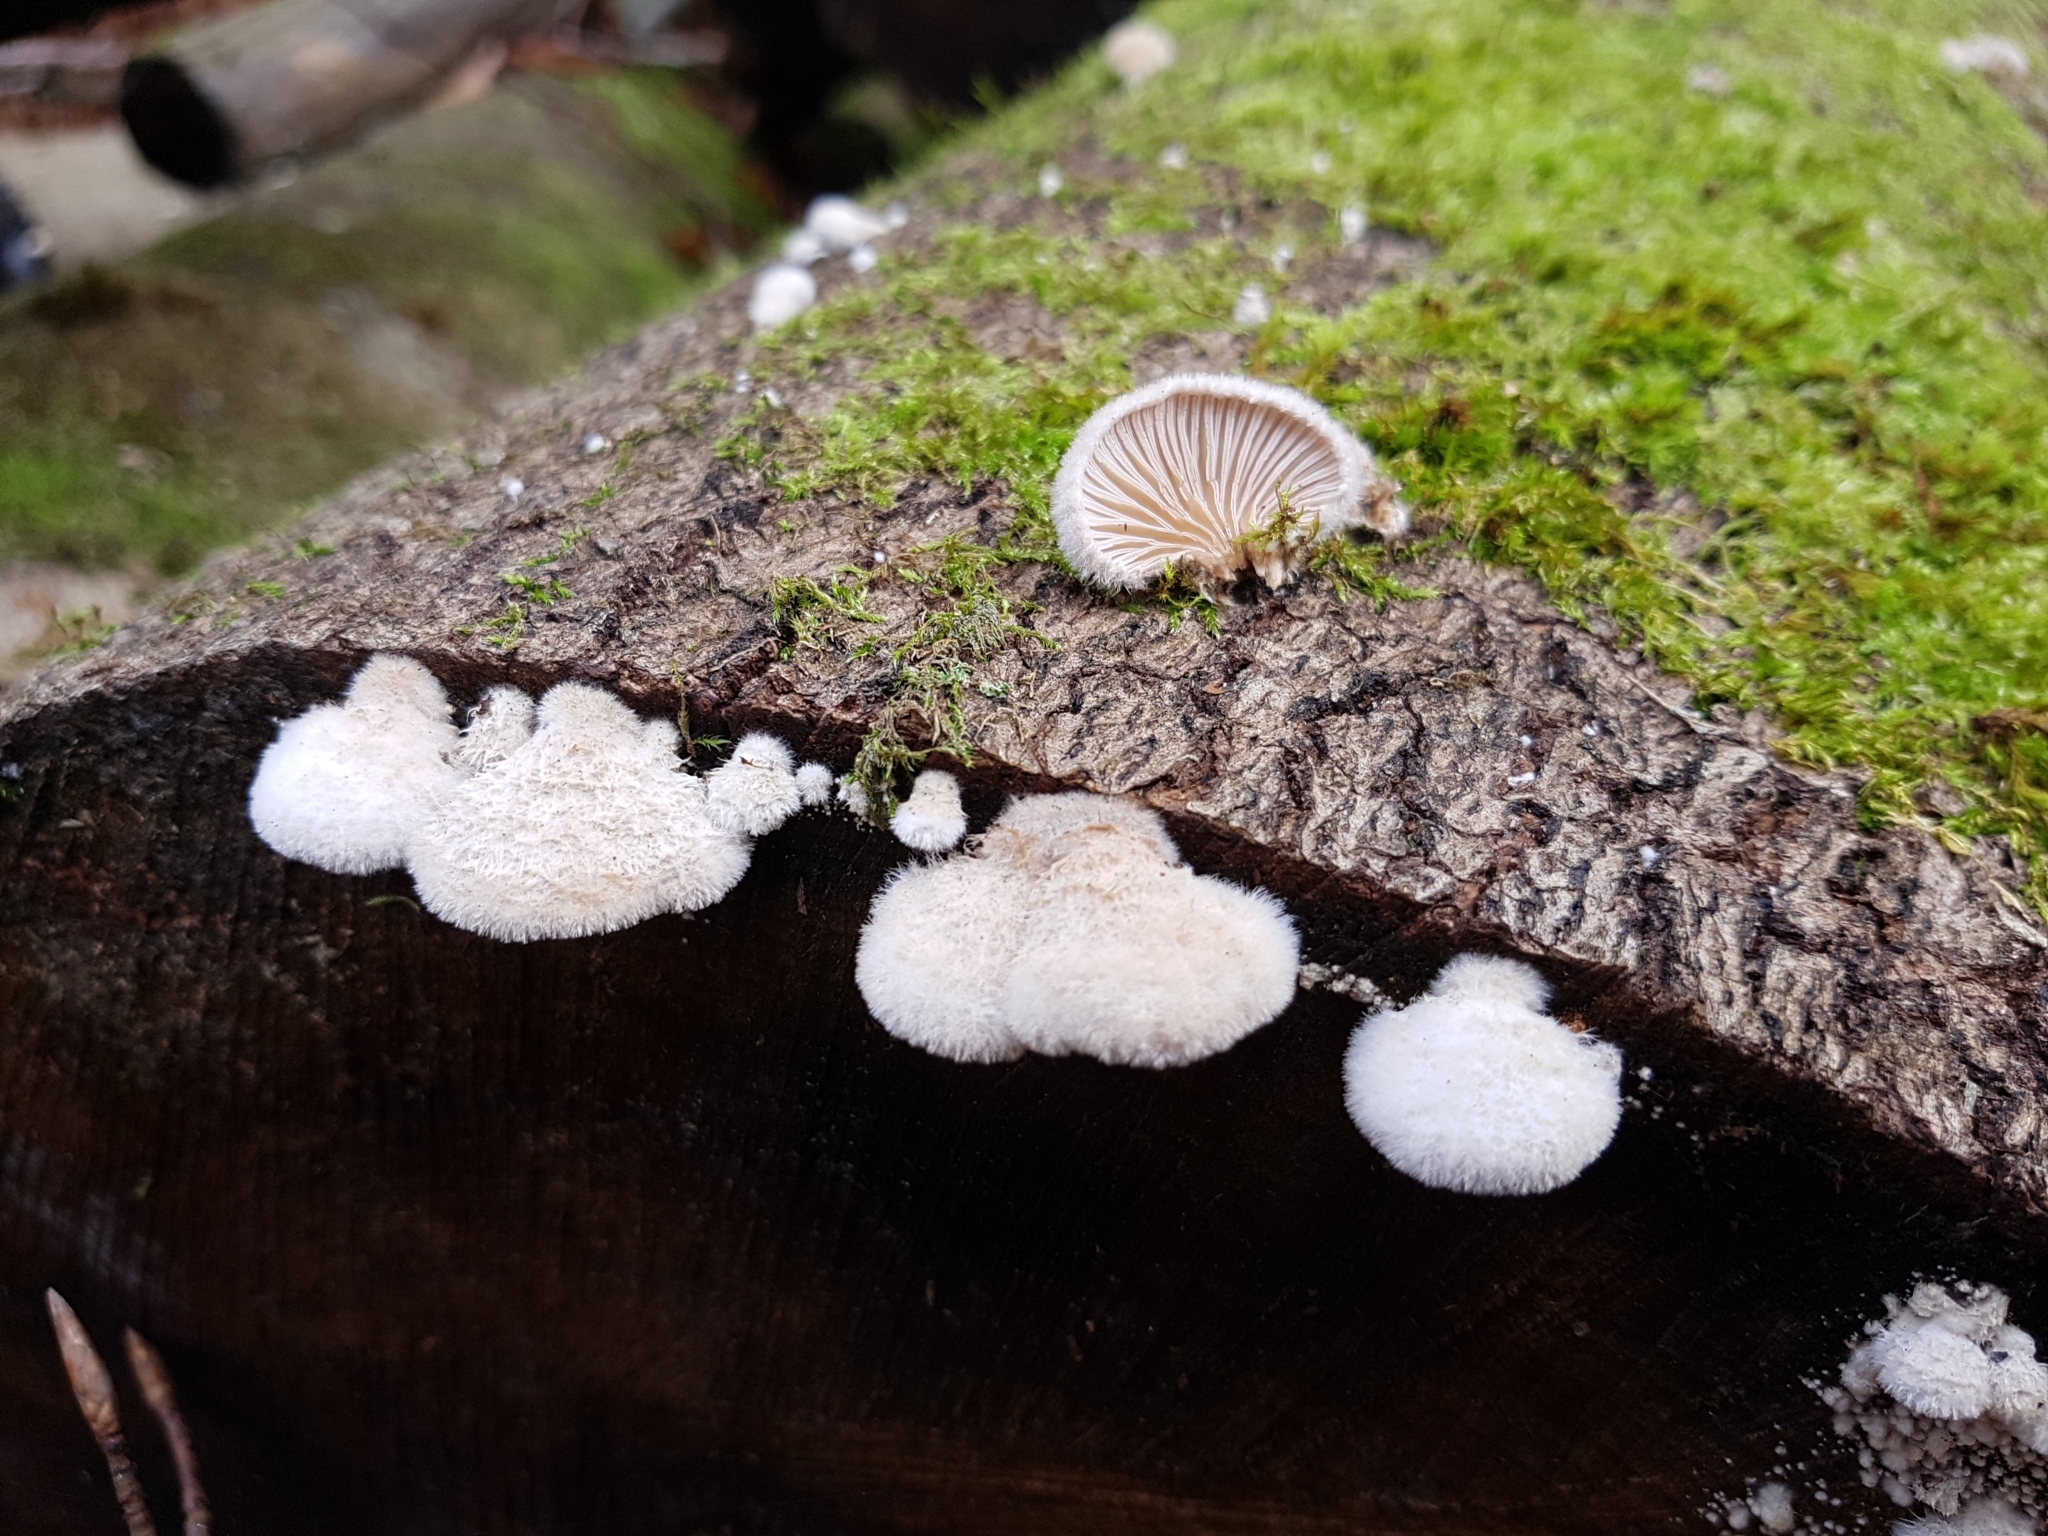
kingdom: Fungi
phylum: Basidiomycota
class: Agaricomycetes
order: Agaricales
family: Schizophyllaceae
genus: Schizophyllum
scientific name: Schizophyllum commune
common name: Common porecrust
